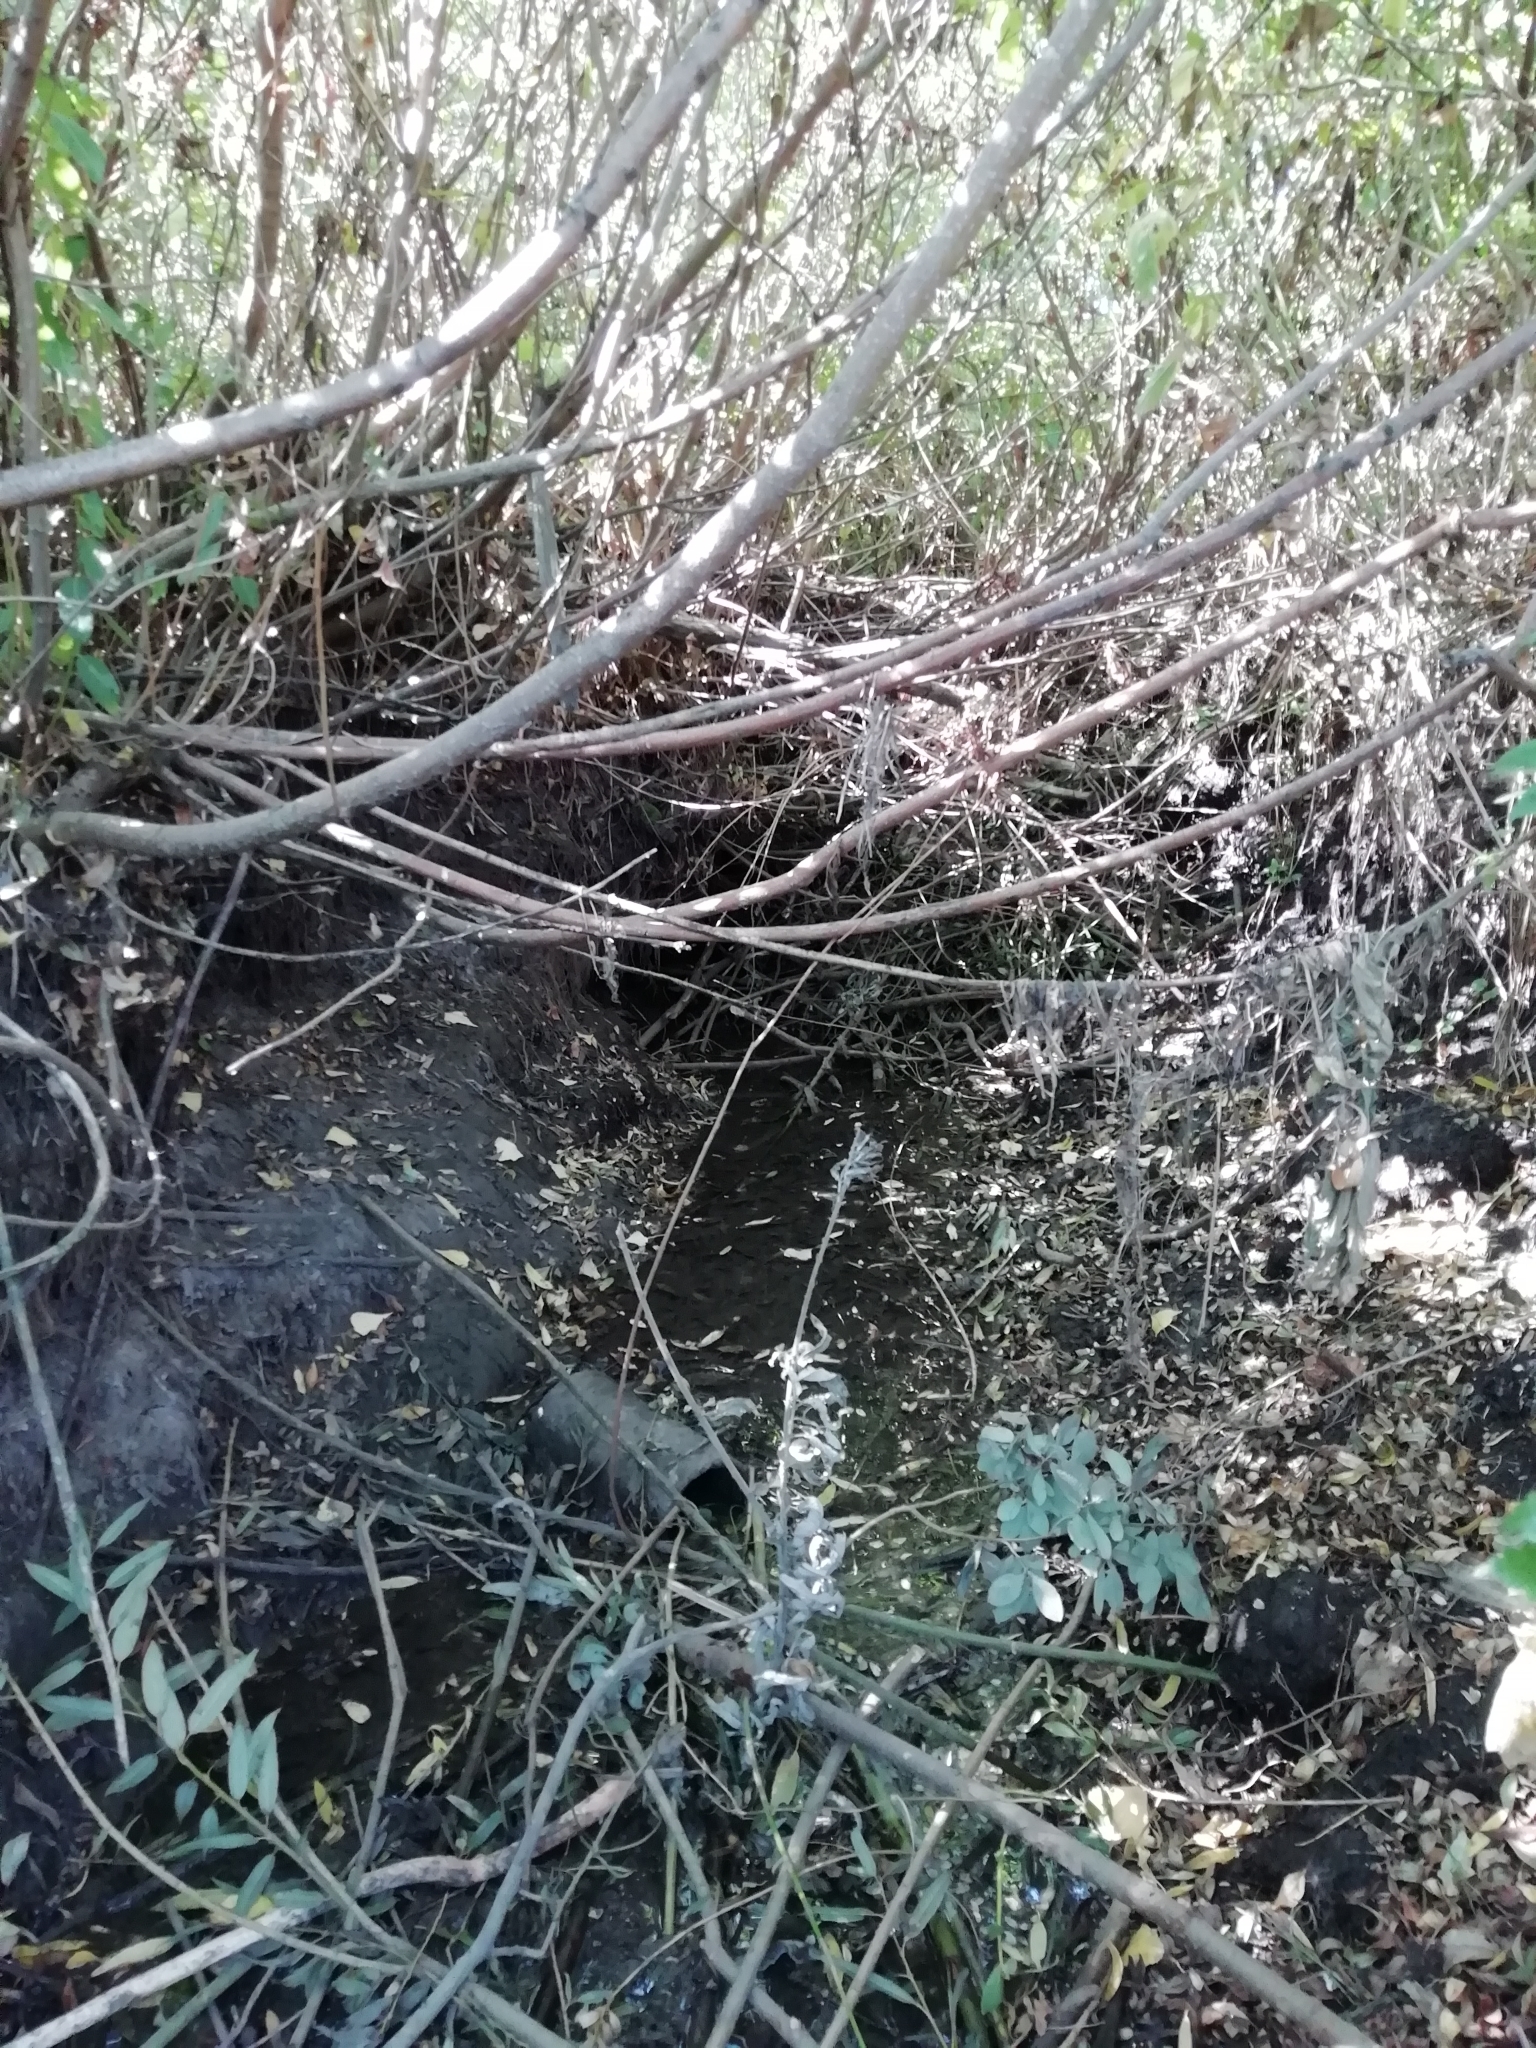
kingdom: Animalia
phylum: Chordata
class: Mammalia
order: Rodentia
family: Castoridae
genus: Castor
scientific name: Castor fiber
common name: Eurasian beaver
